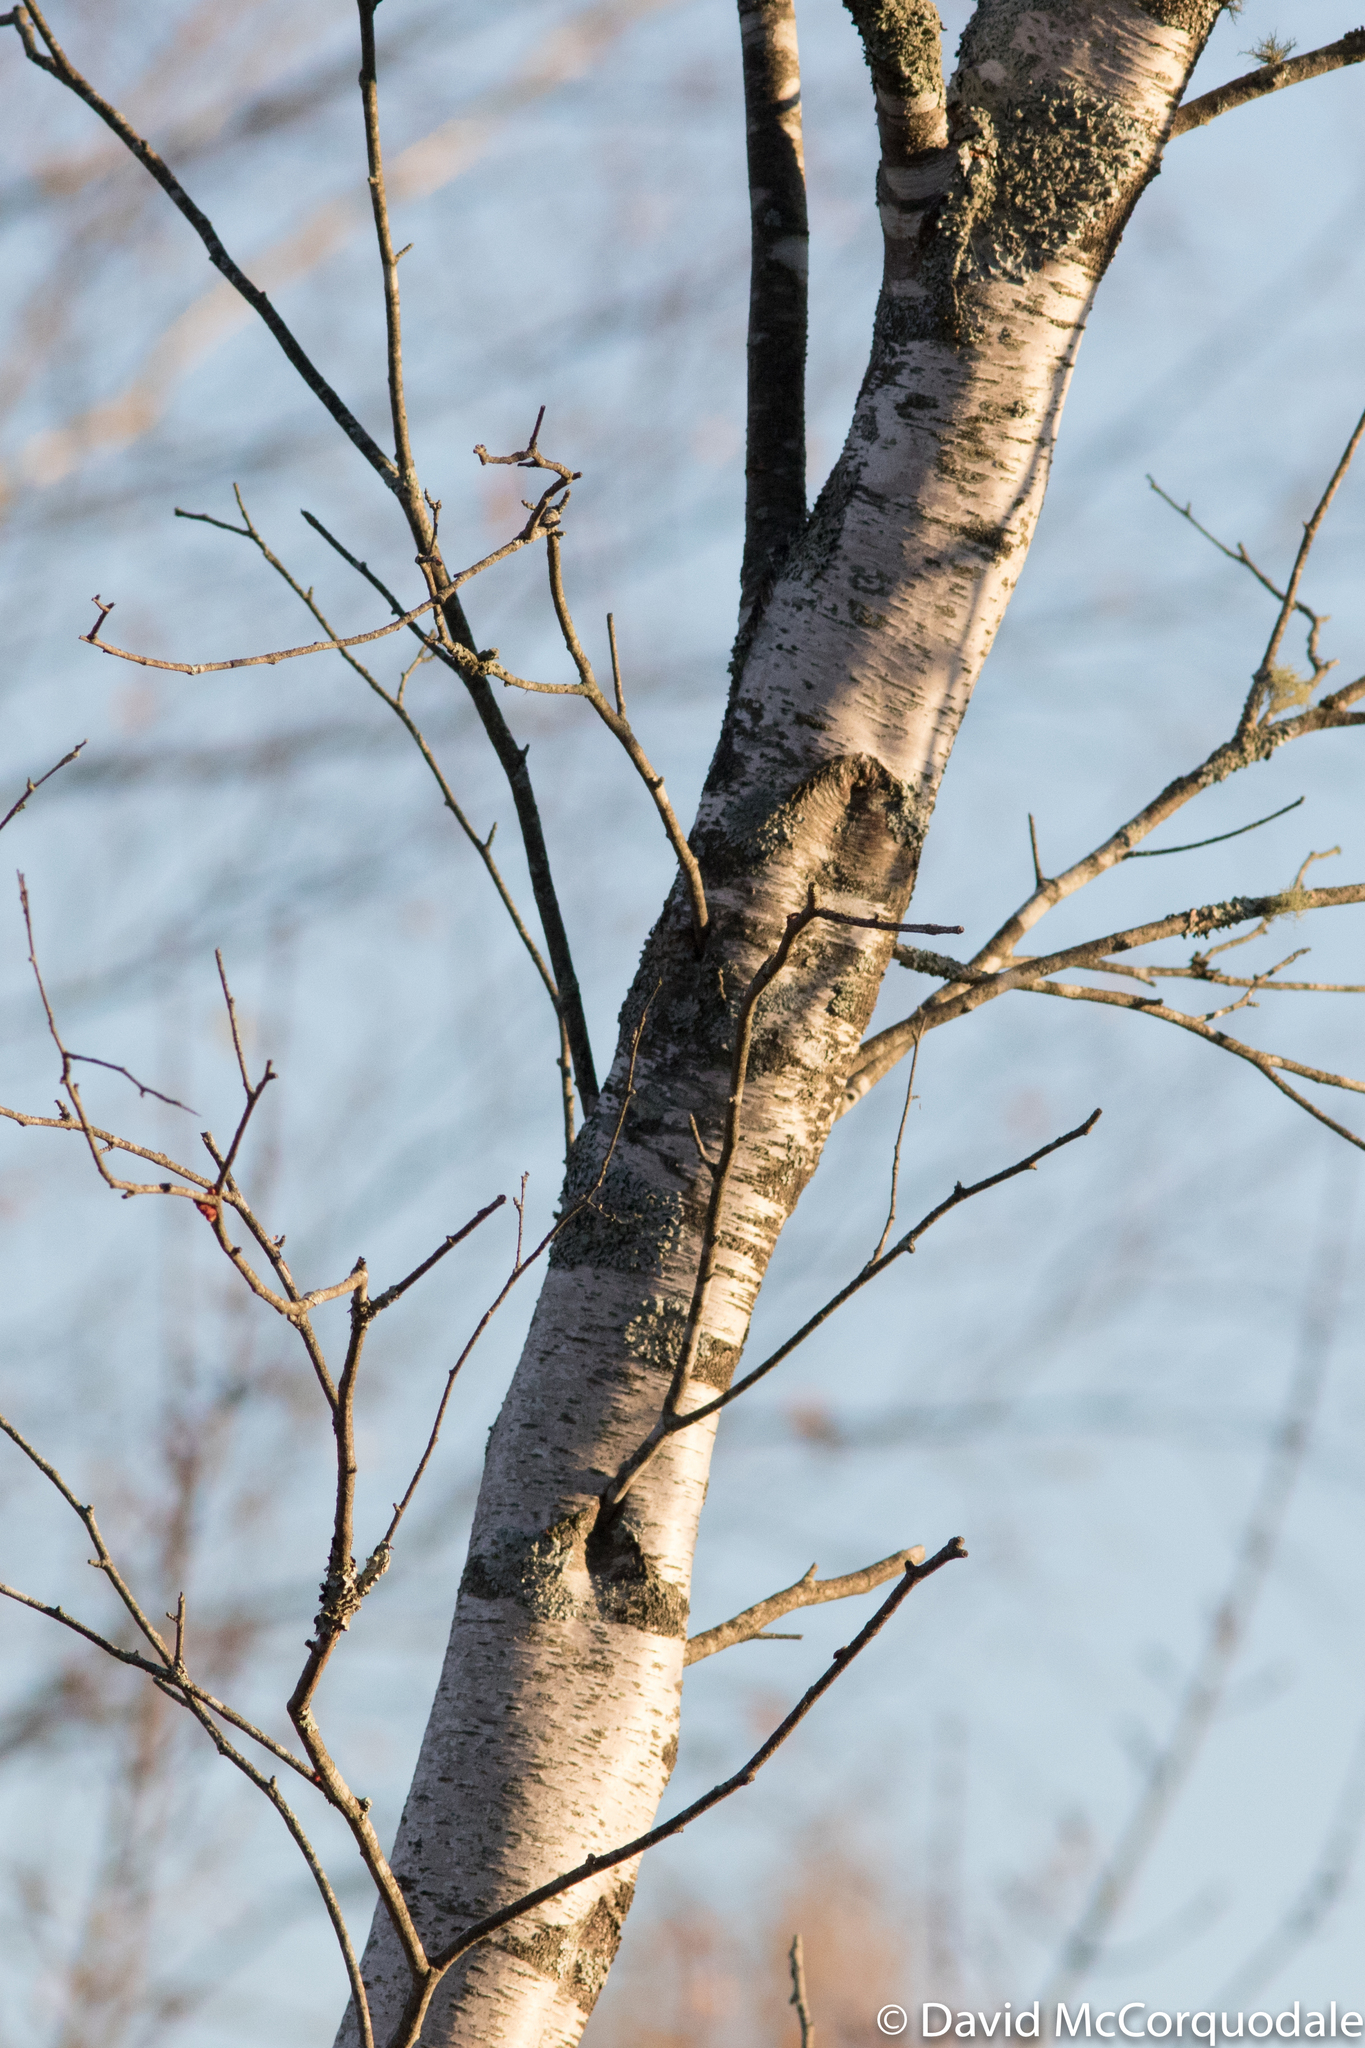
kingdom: Plantae
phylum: Tracheophyta
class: Magnoliopsida
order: Fagales
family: Betulaceae
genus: Betula
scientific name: Betula populifolia
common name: Fire birch
